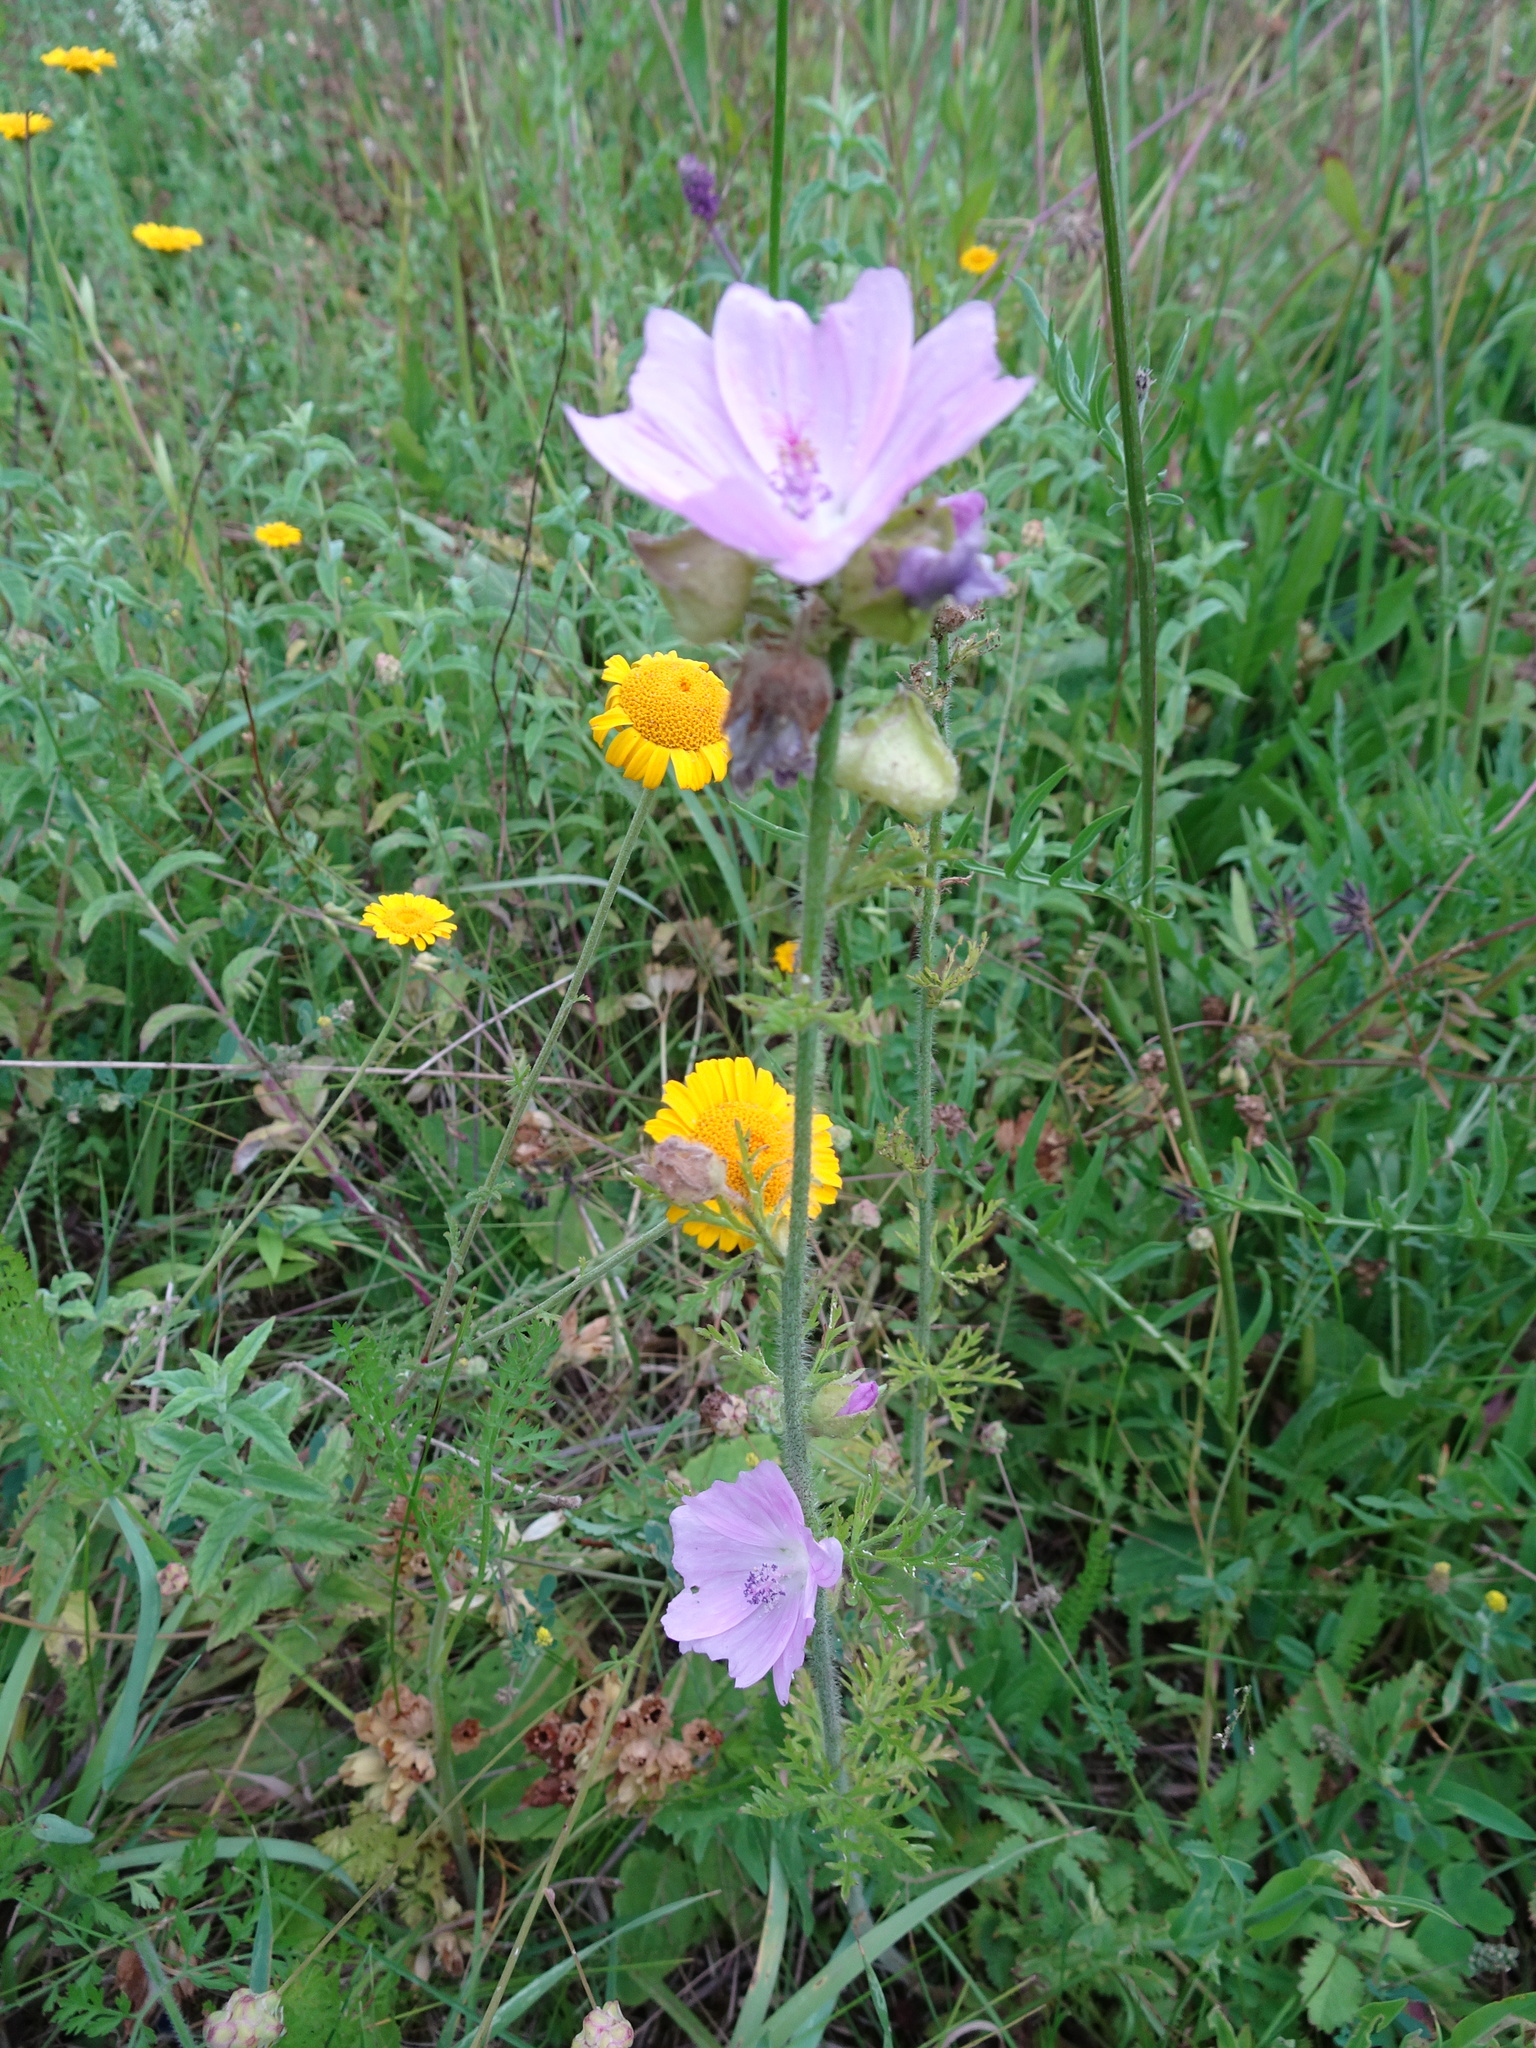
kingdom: Plantae
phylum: Tracheophyta
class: Magnoliopsida
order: Malvales
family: Malvaceae
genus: Malva
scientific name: Malva moschata
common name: Musk mallow
